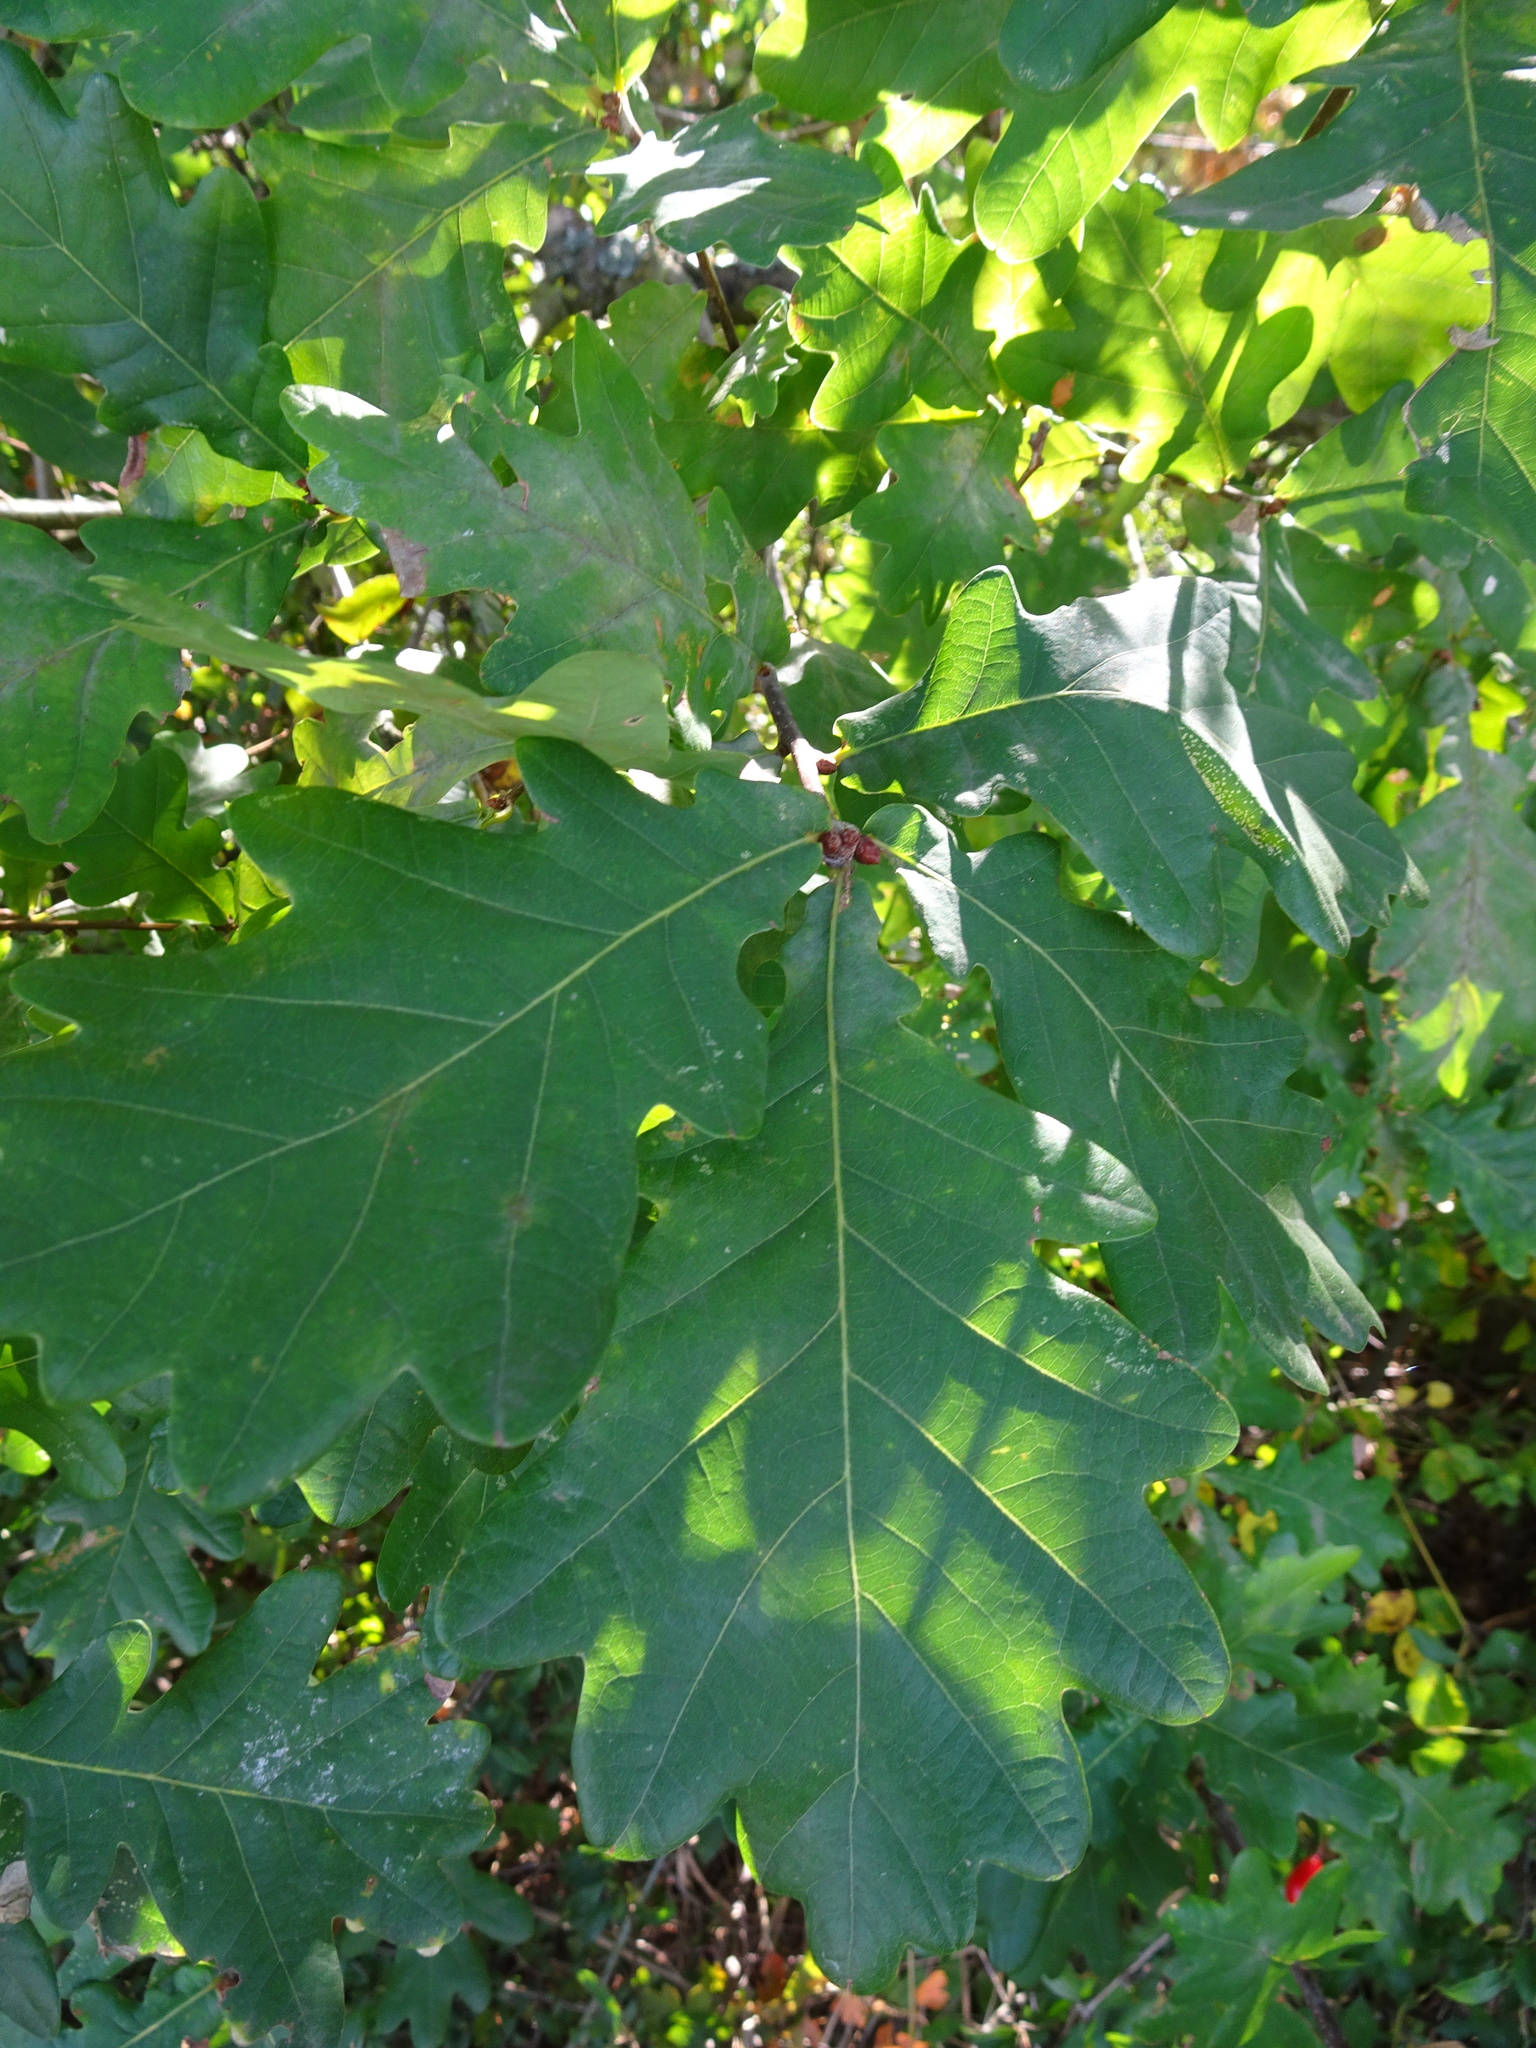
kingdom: Plantae
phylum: Tracheophyta
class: Magnoliopsida
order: Fagales
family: Fagaceae
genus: Quercus
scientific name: Quercus robur
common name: Pedunculate oak
